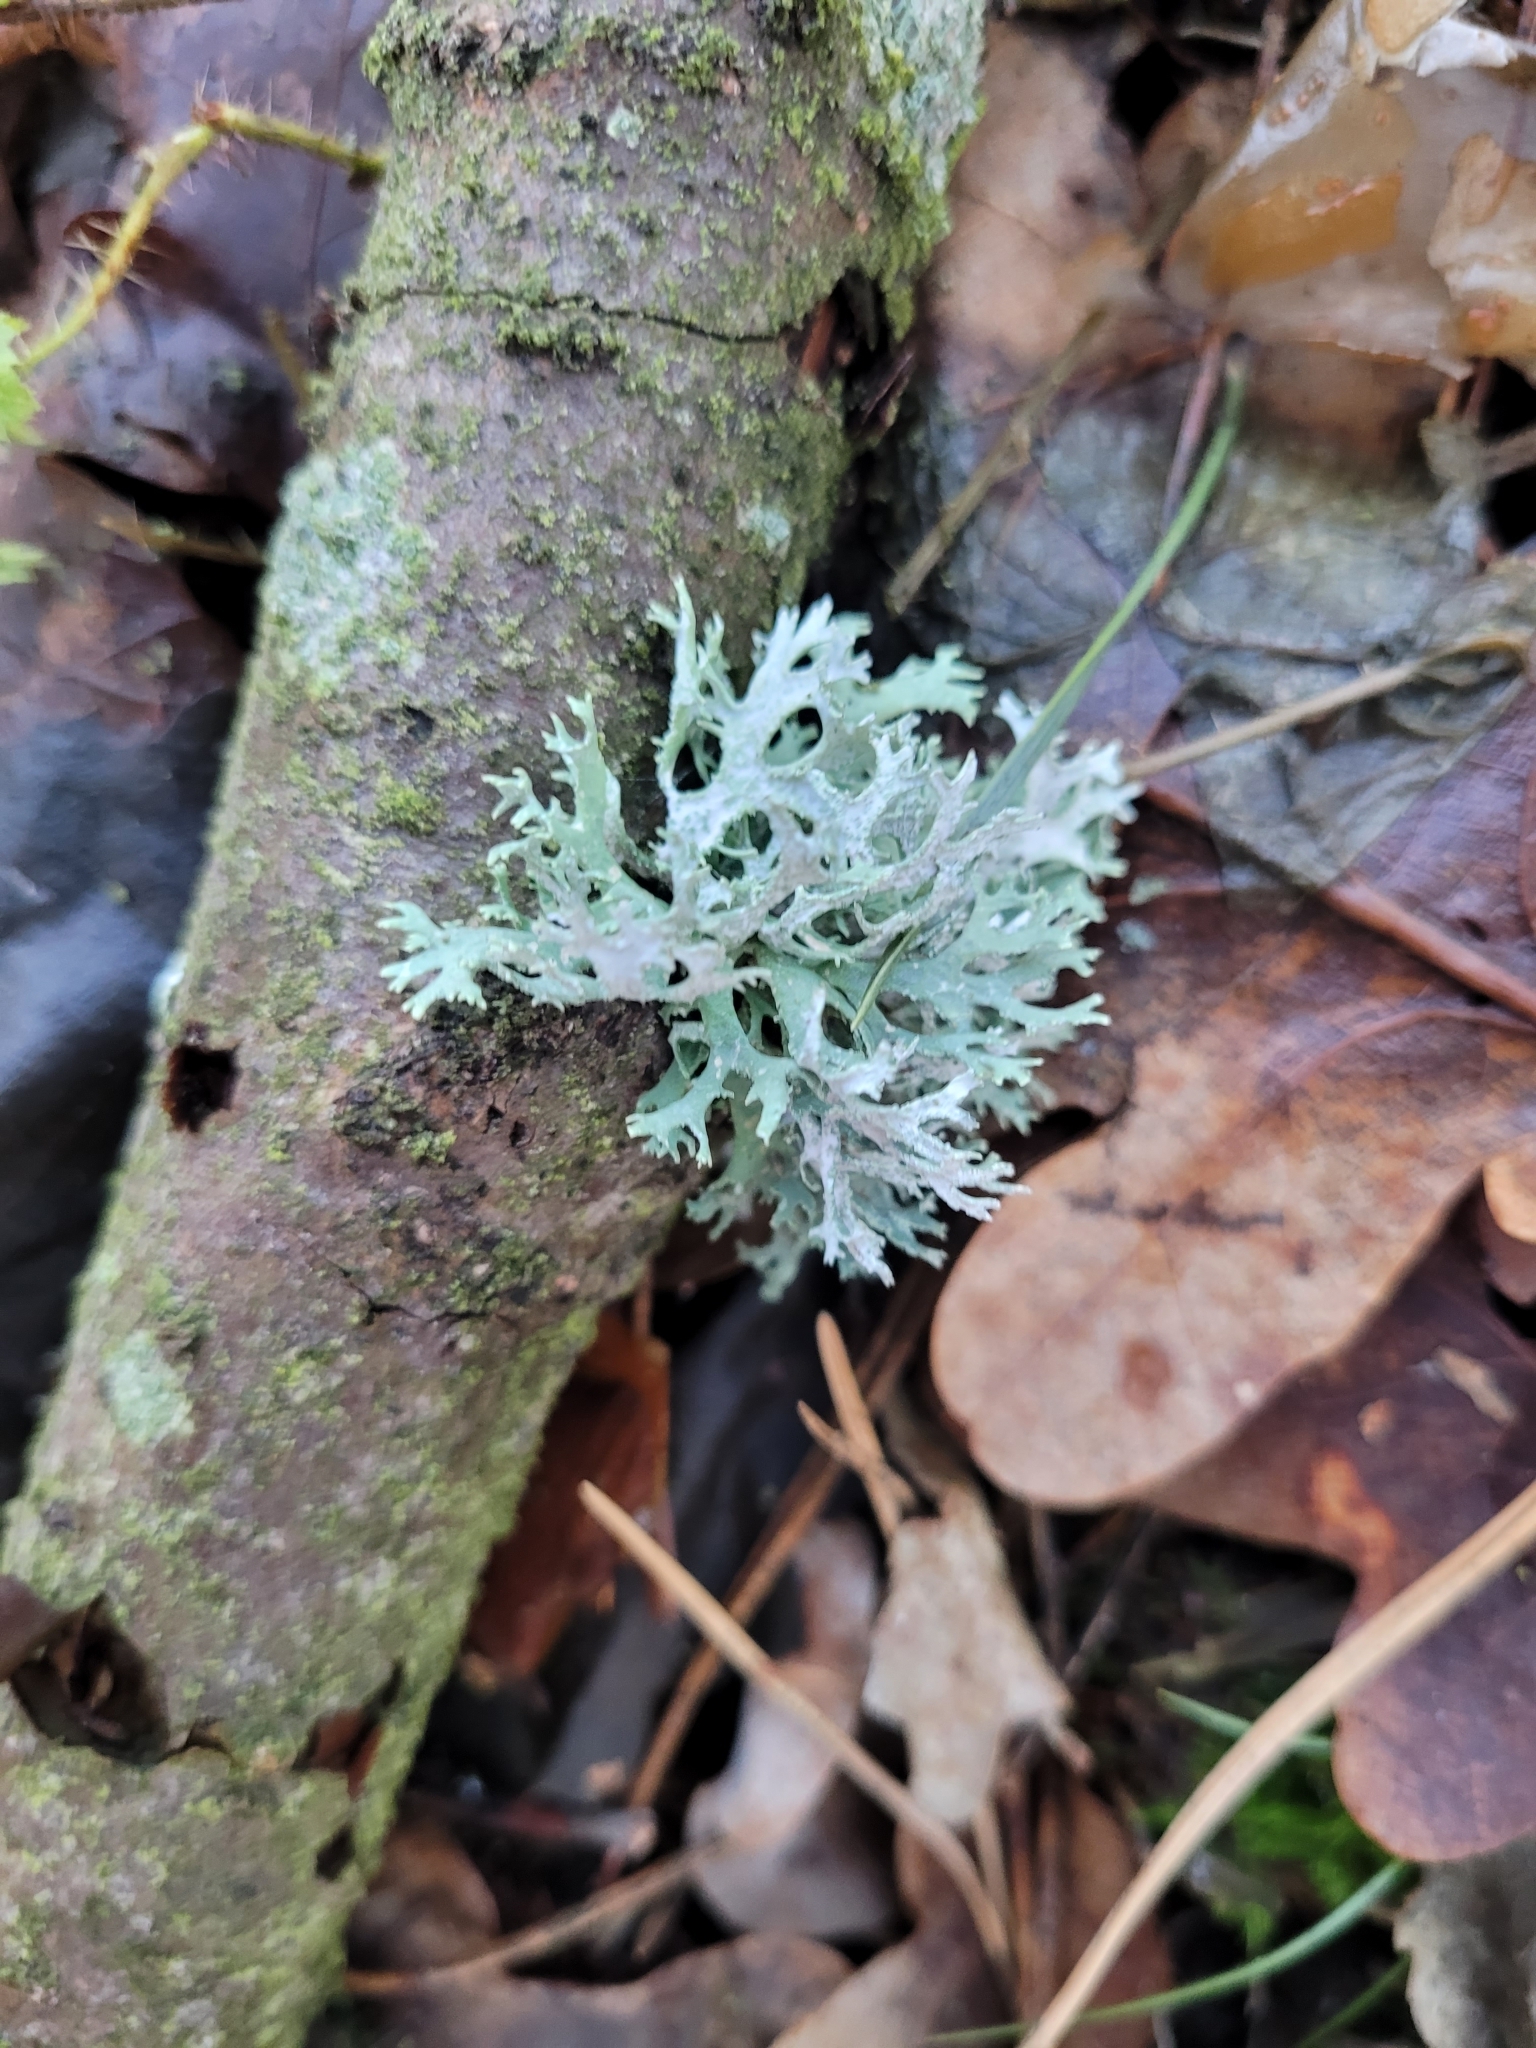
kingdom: Fungi
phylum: Ascomycota
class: Lecanoromycetes
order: Lecanorales
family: Parmeliaceae
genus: Evernia
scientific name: Evernia prunastri
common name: Oak moss
